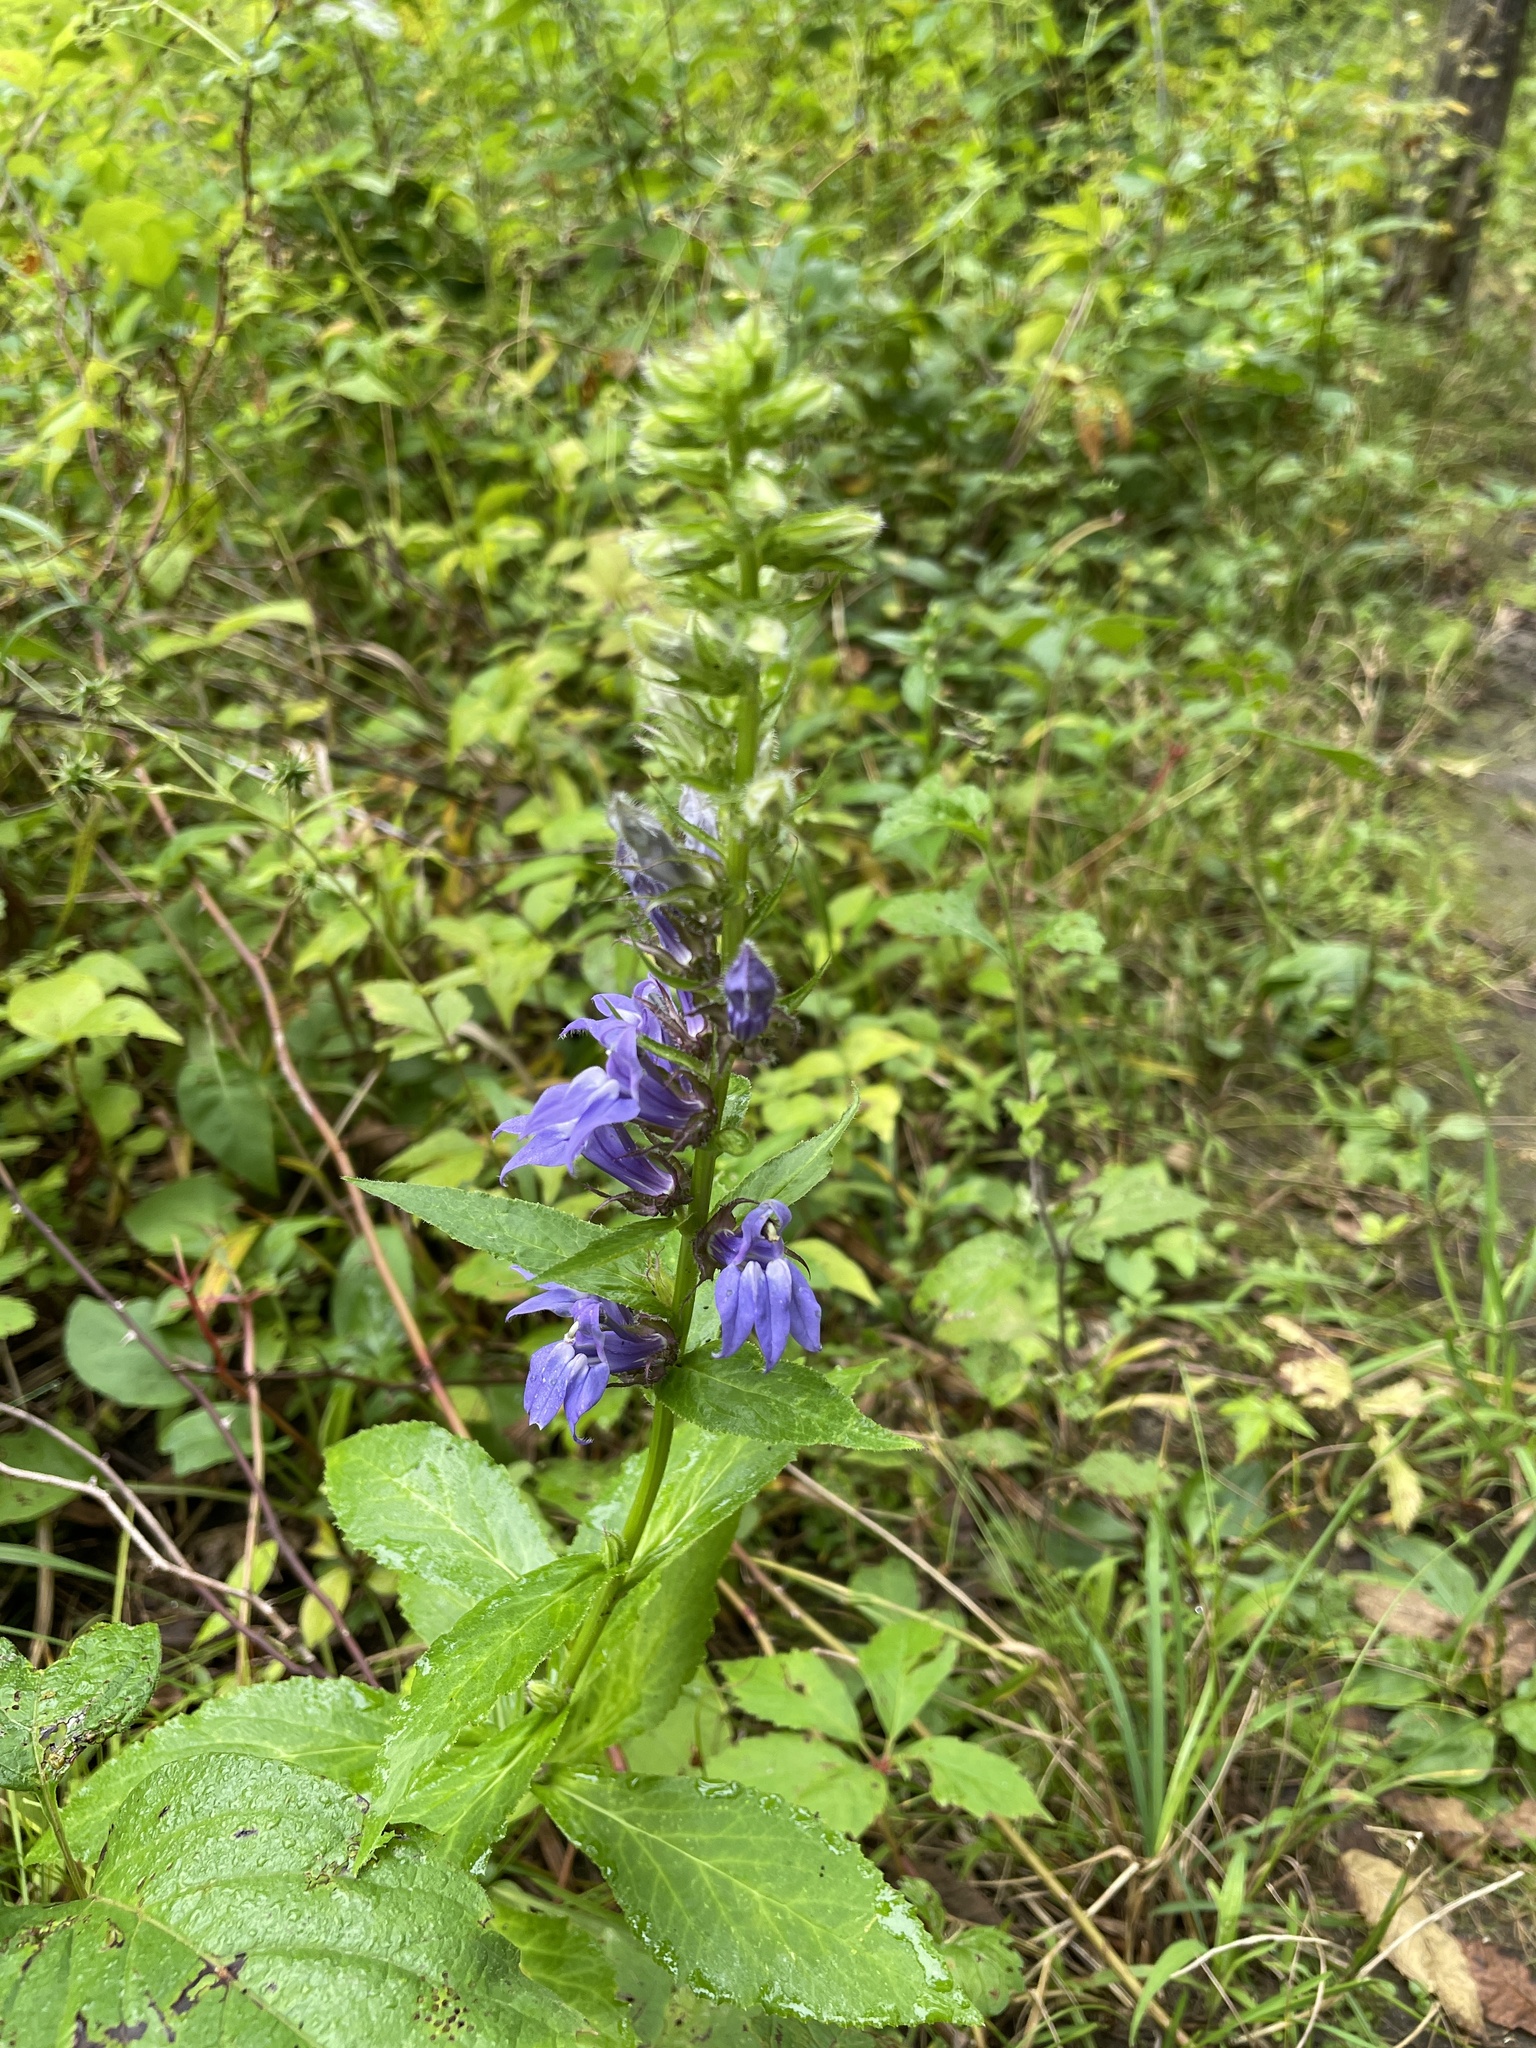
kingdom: Plantae
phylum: Tracheophyta
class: Magnoliopsida
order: Asterales
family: Campanulaceae
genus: Lobelia
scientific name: Lobelia siphilitica
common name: Great lobelia
